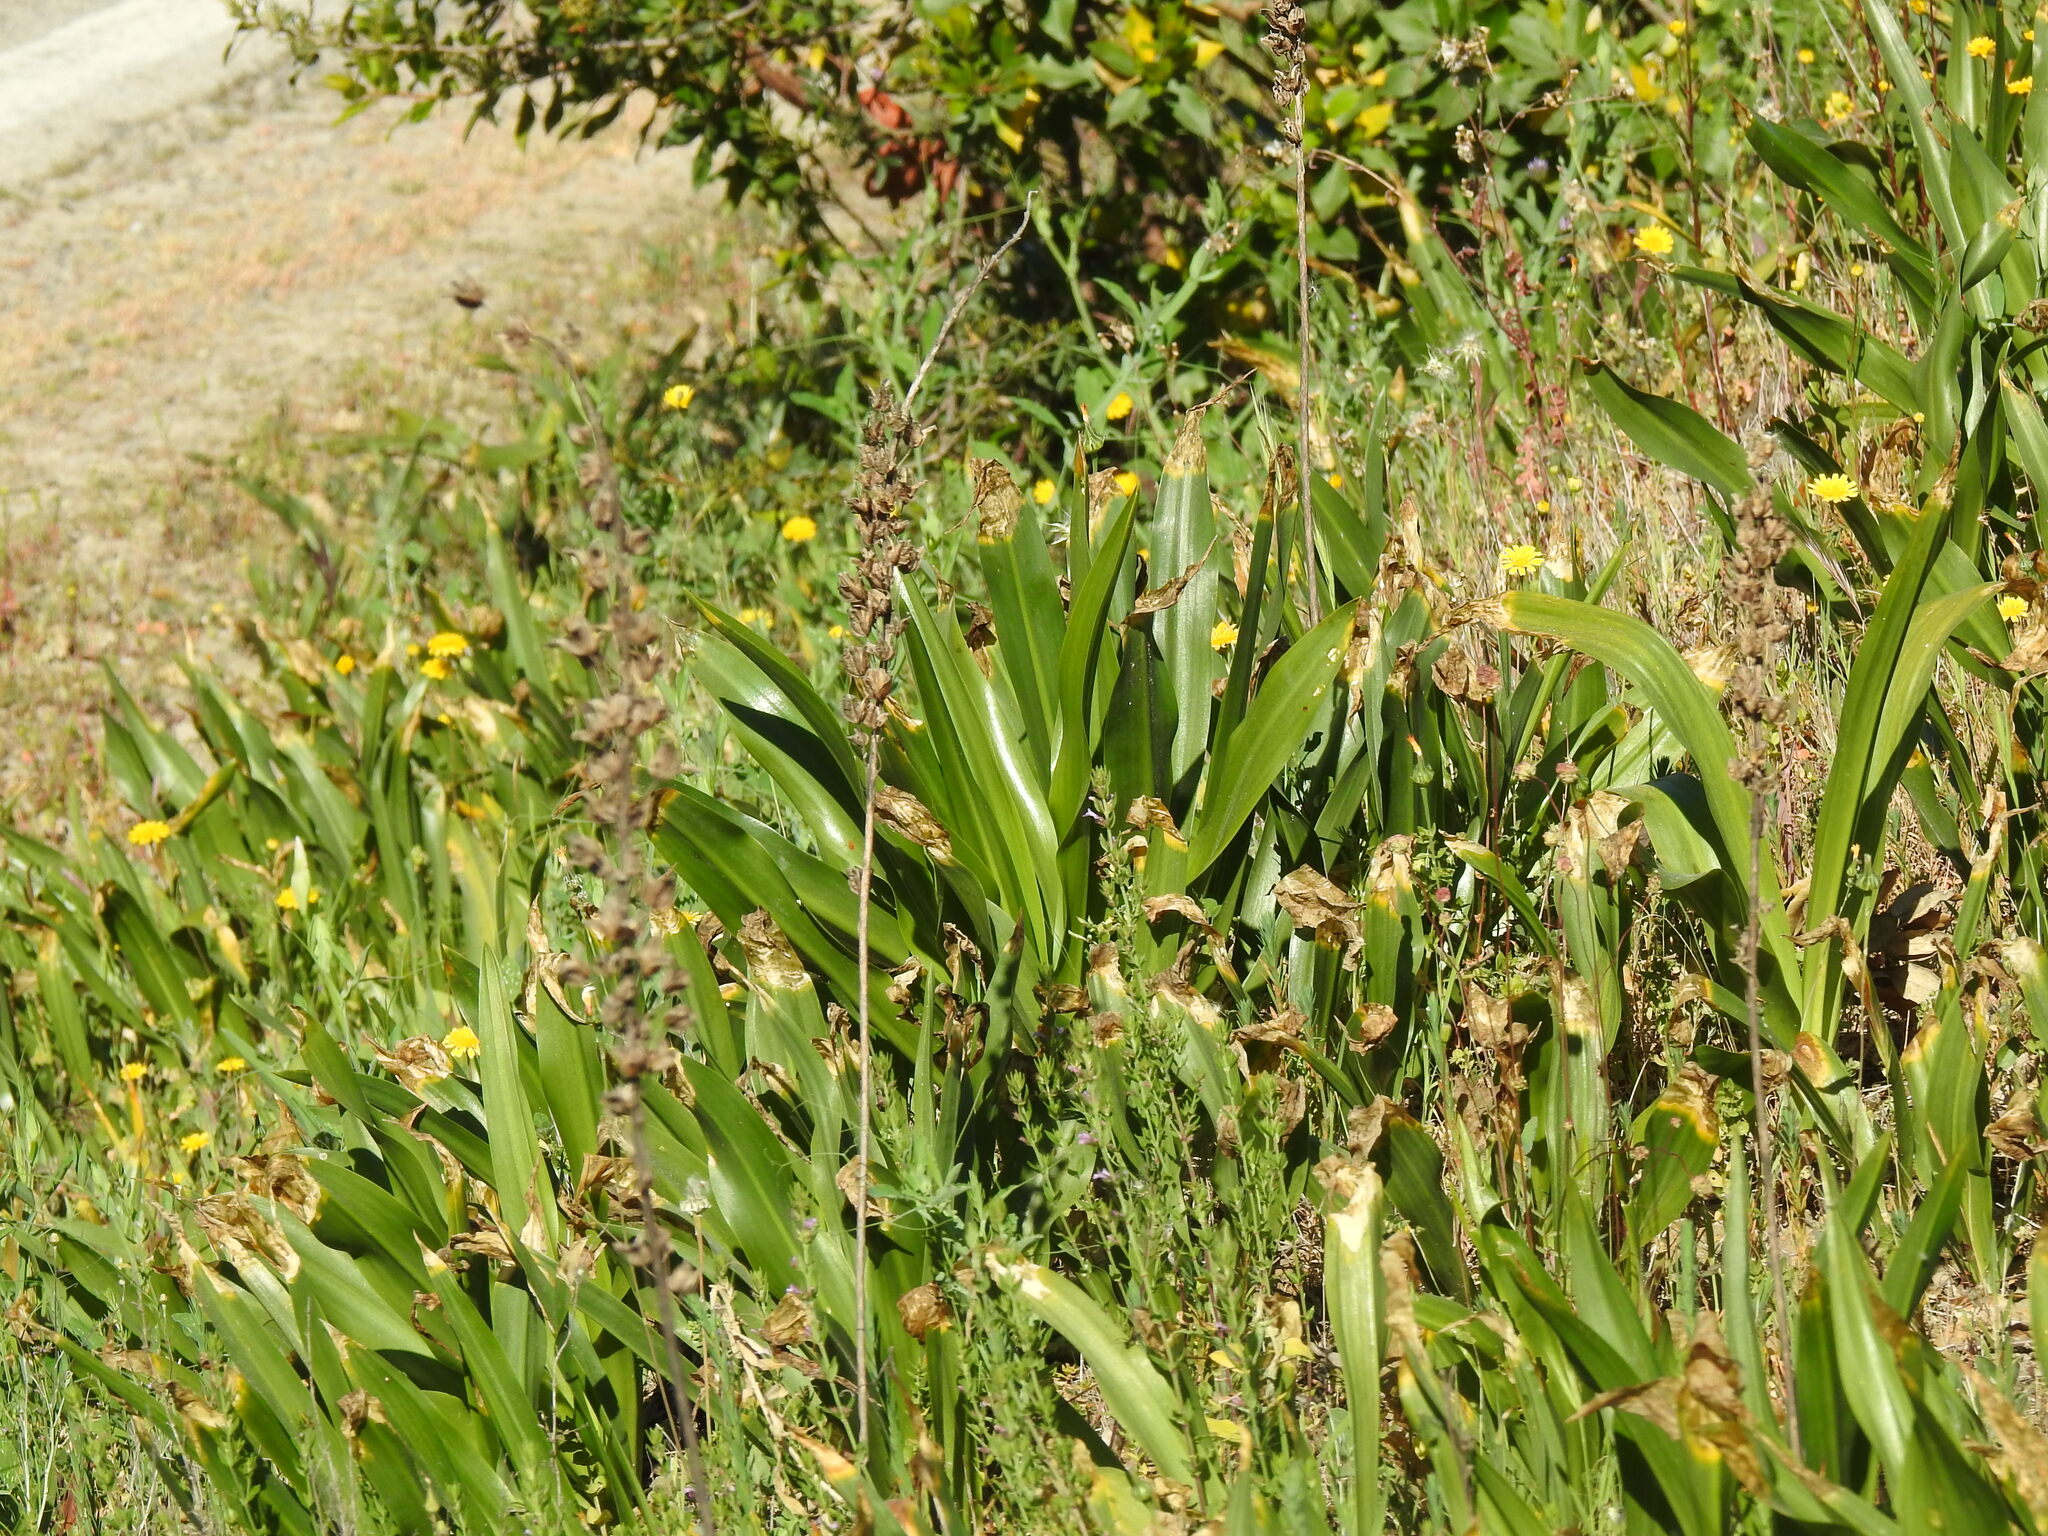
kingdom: Plantae
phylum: Tracheophyta
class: Liliopsida
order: Asparagales
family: Asparagaceae
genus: Drimia
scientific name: Drimia maritima
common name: Maritime squill
